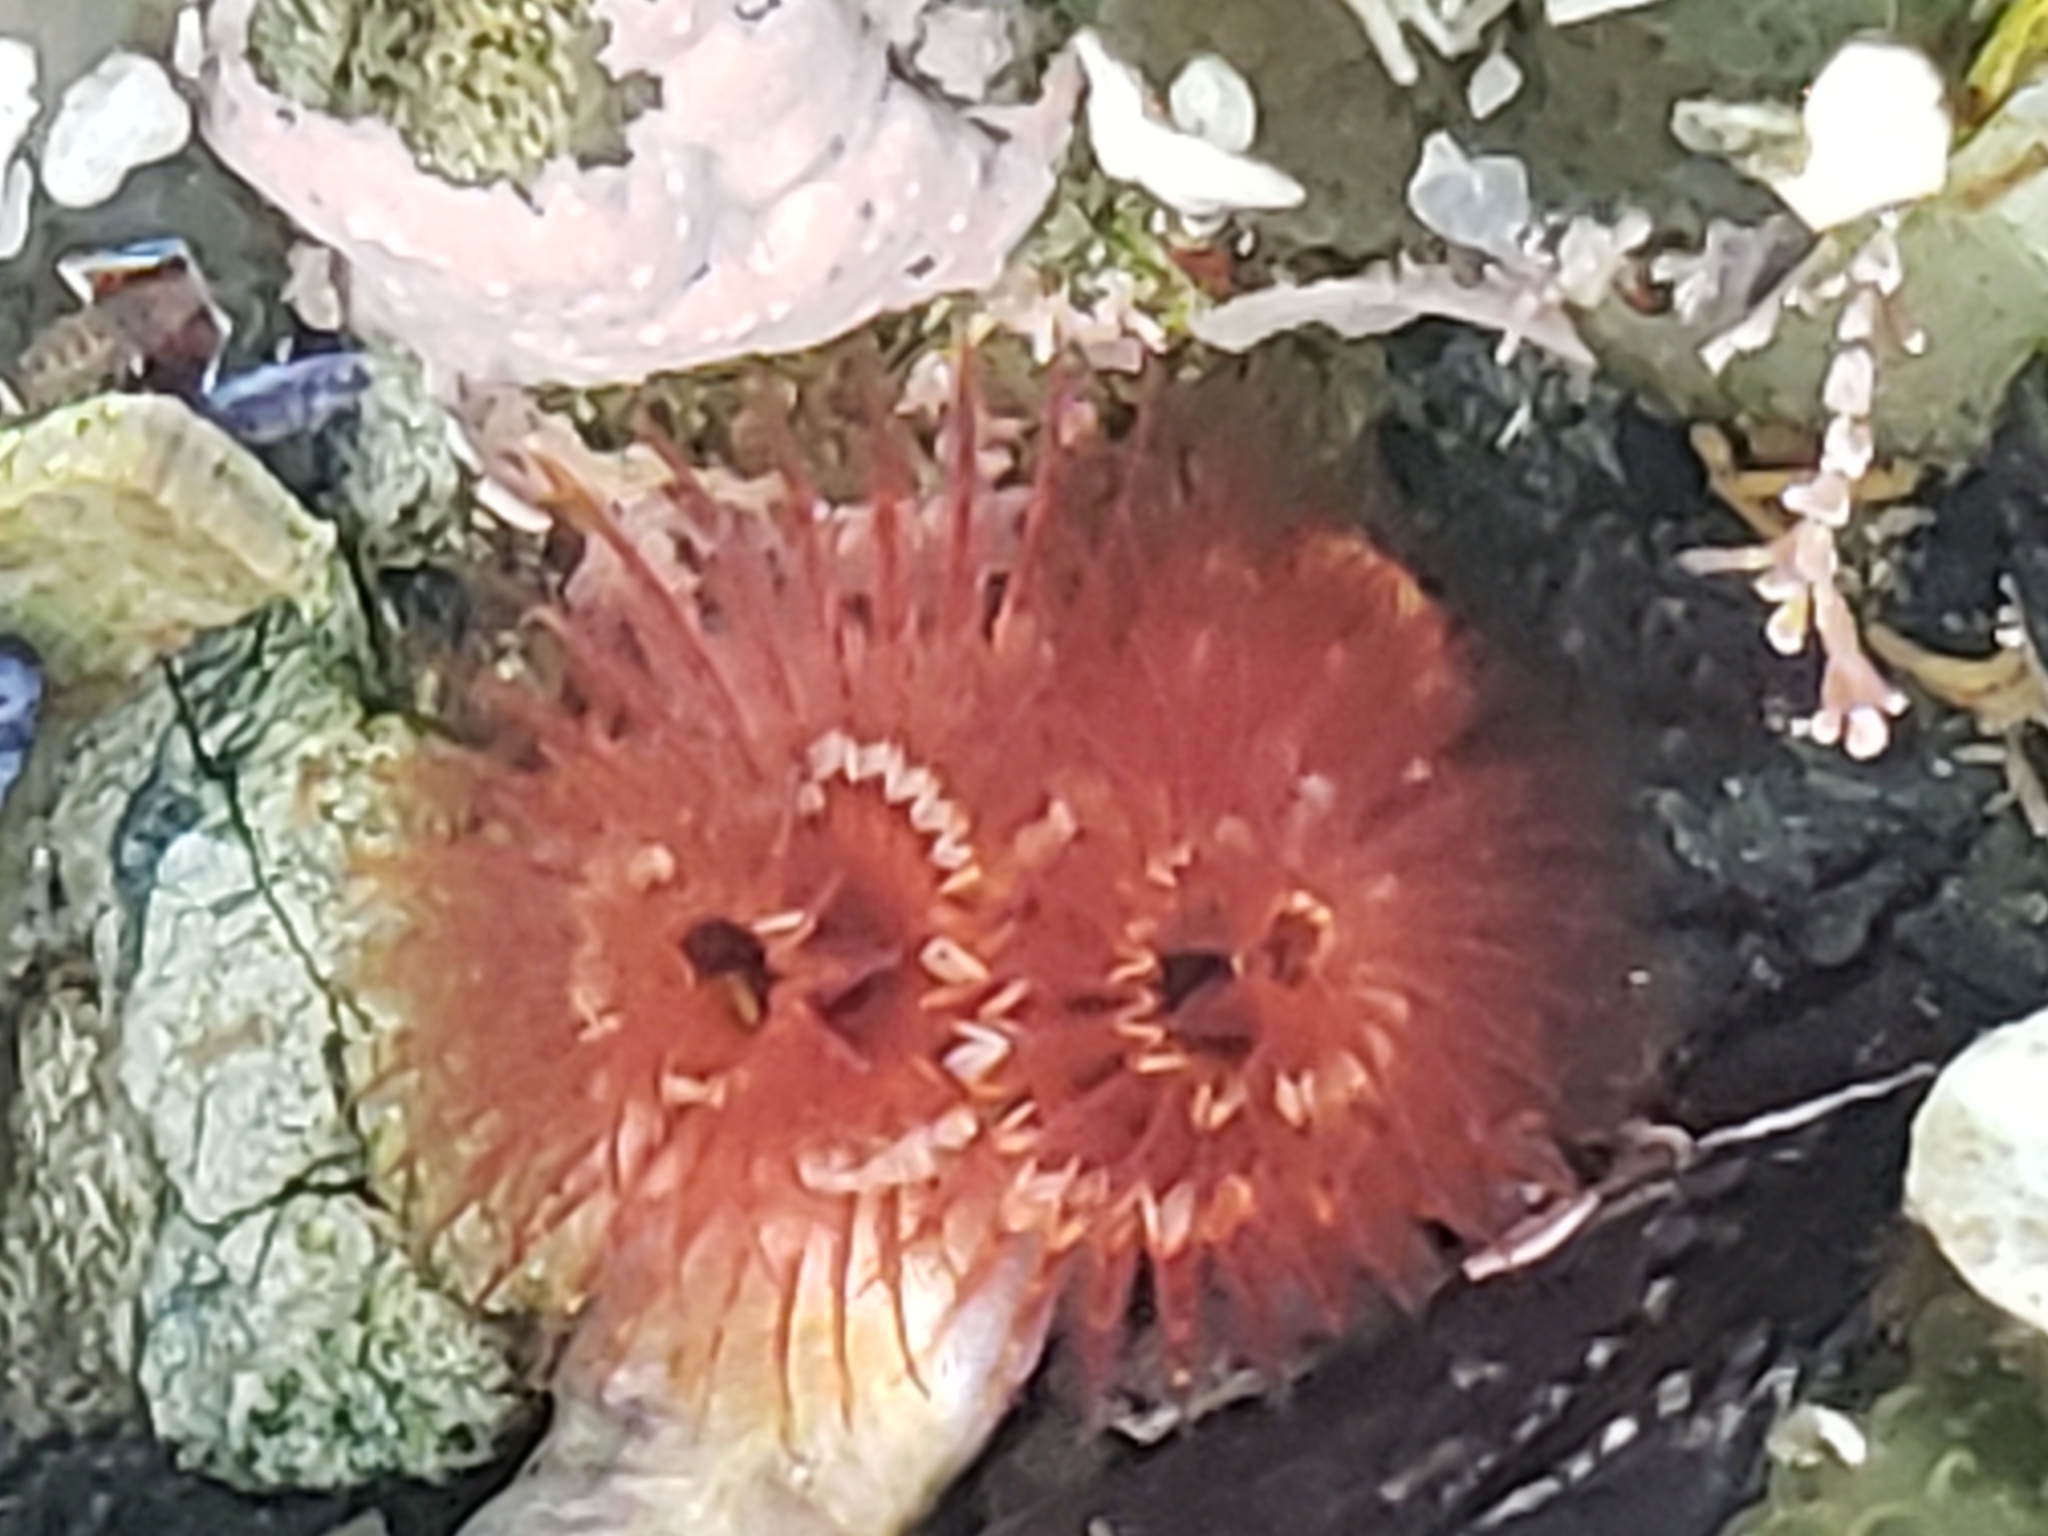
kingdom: Animalia
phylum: Annelida
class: Polychaeta
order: Sabellida
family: Serpulidae
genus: Spirobranchus
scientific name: Spirobranchus spinosus
